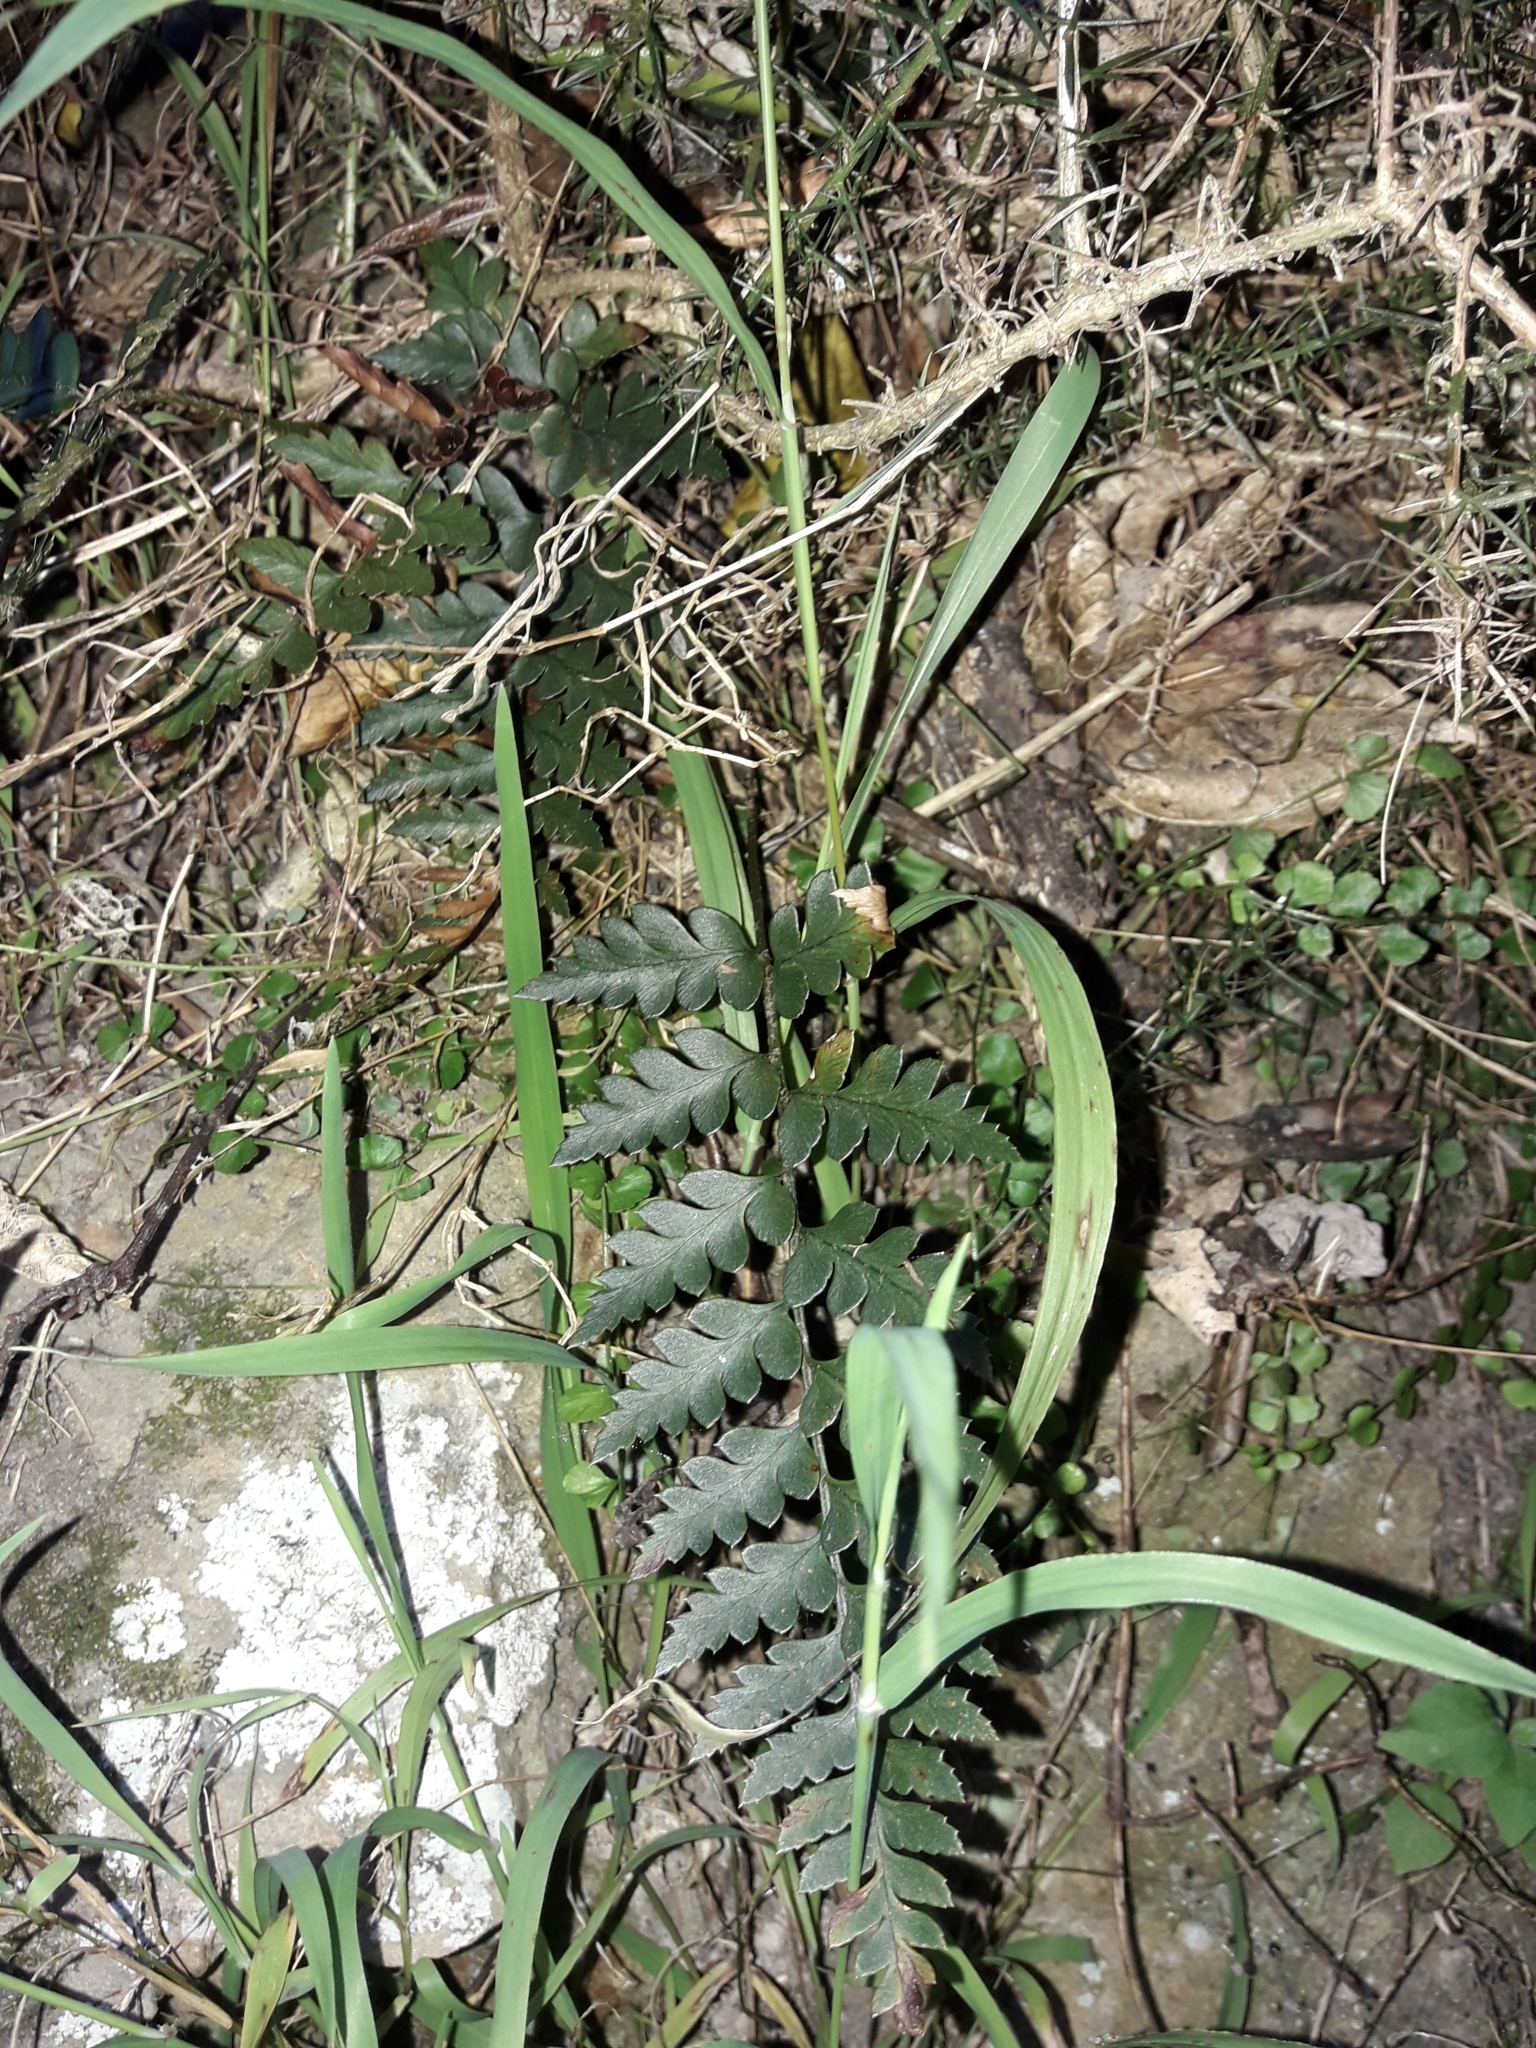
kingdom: Plantae
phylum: Tracheophyta
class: Polypodiopsida
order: Polypodiales
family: Dryopteridaceae
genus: Polystichum
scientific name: Polystichum oculatum
